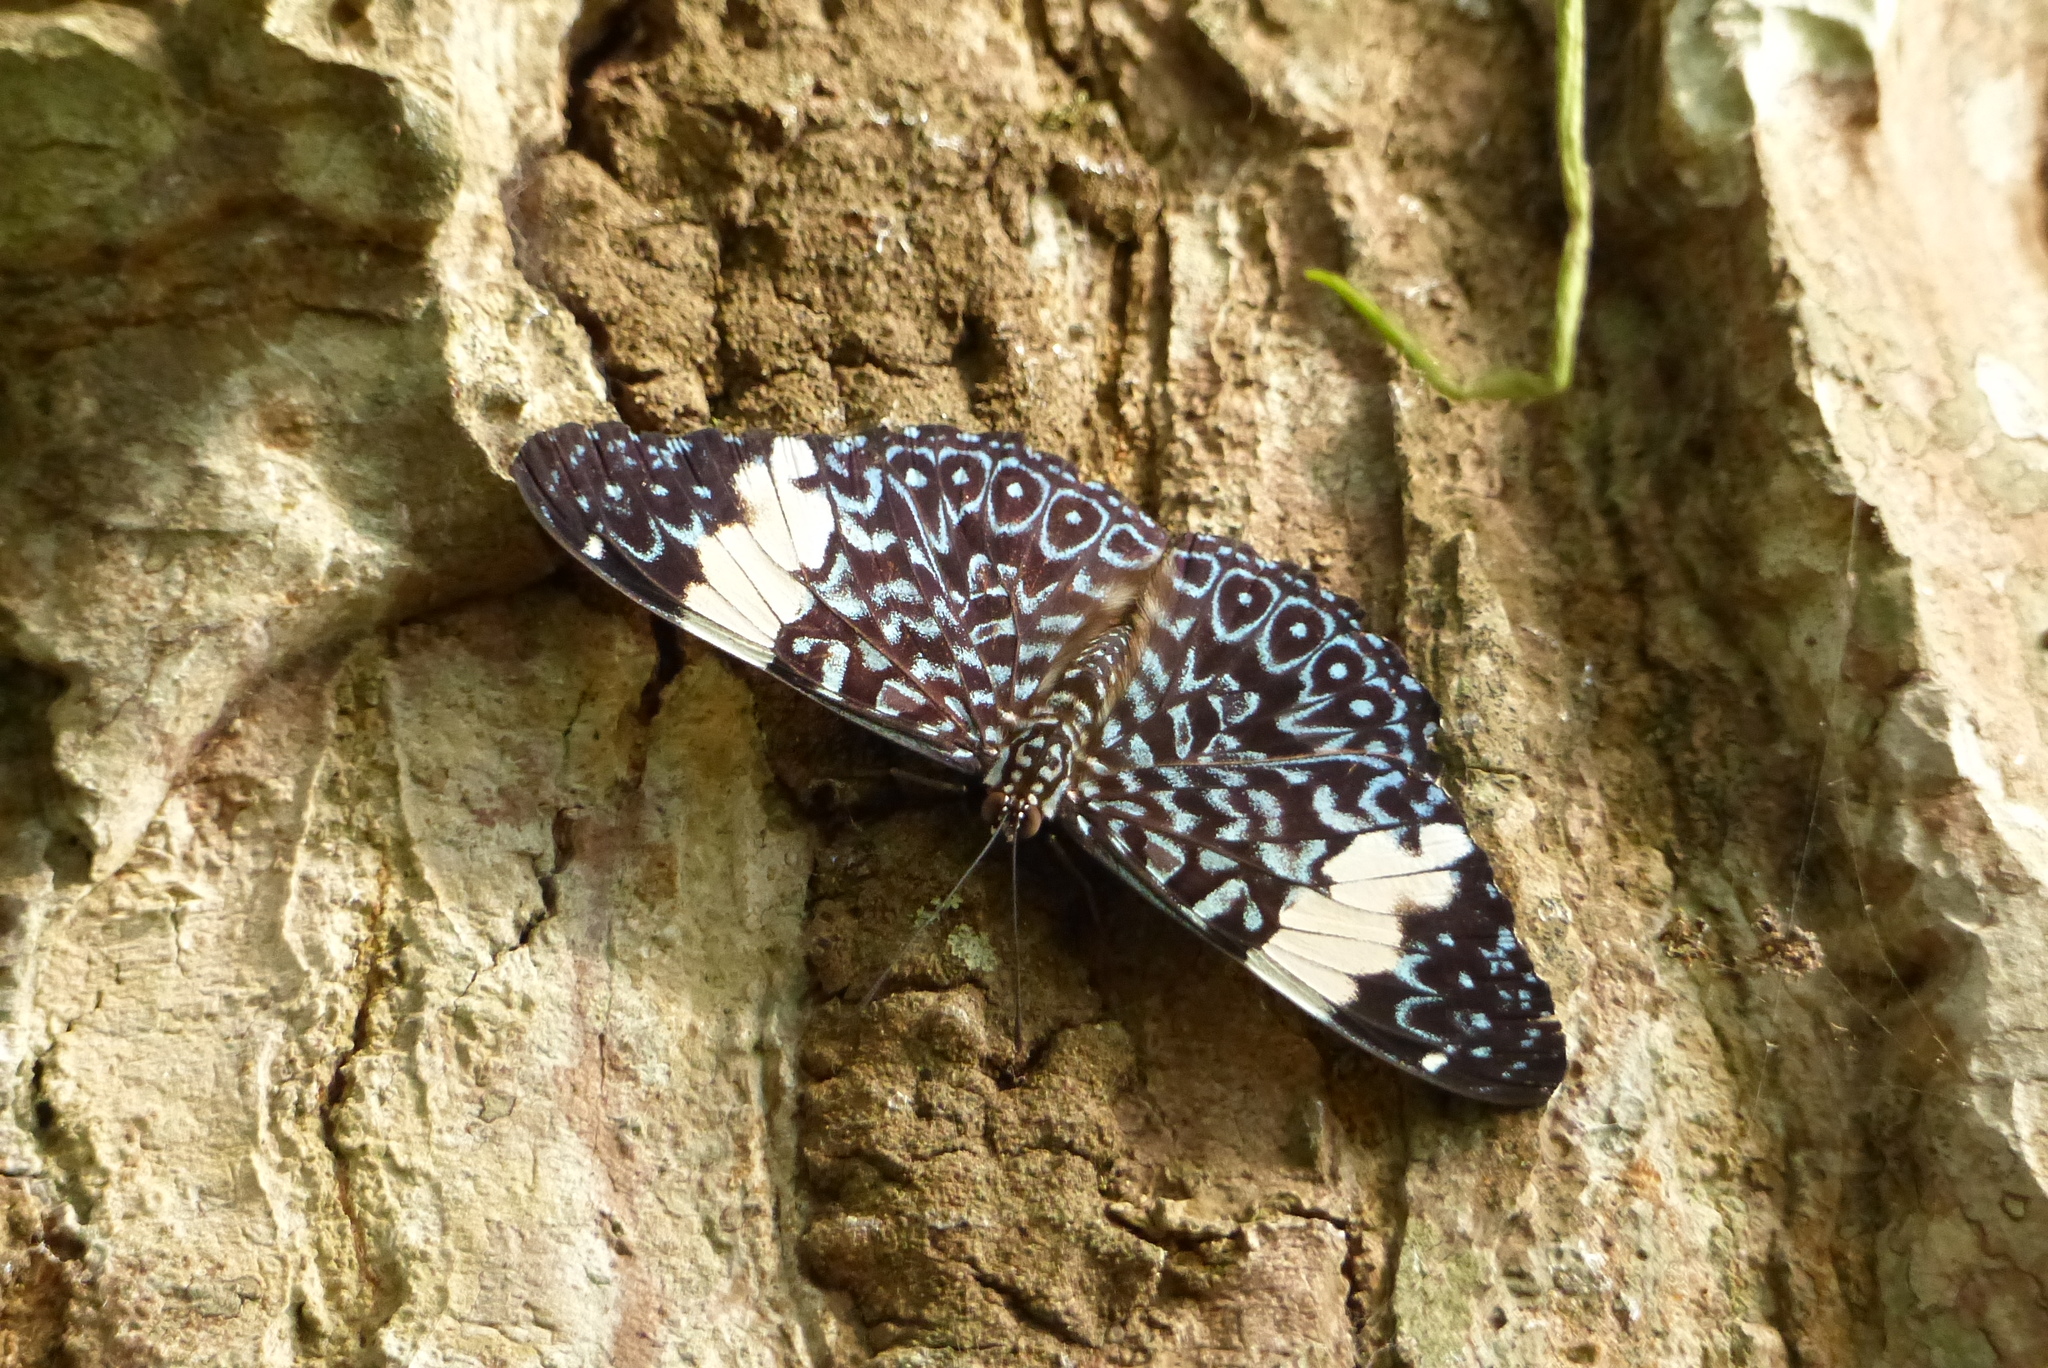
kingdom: Animalia
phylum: Arthropoda
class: Insecta
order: Lepidoptera
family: Nymphalidae
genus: Hamadryas
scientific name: Hamadryas amphinome
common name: Red cracker
